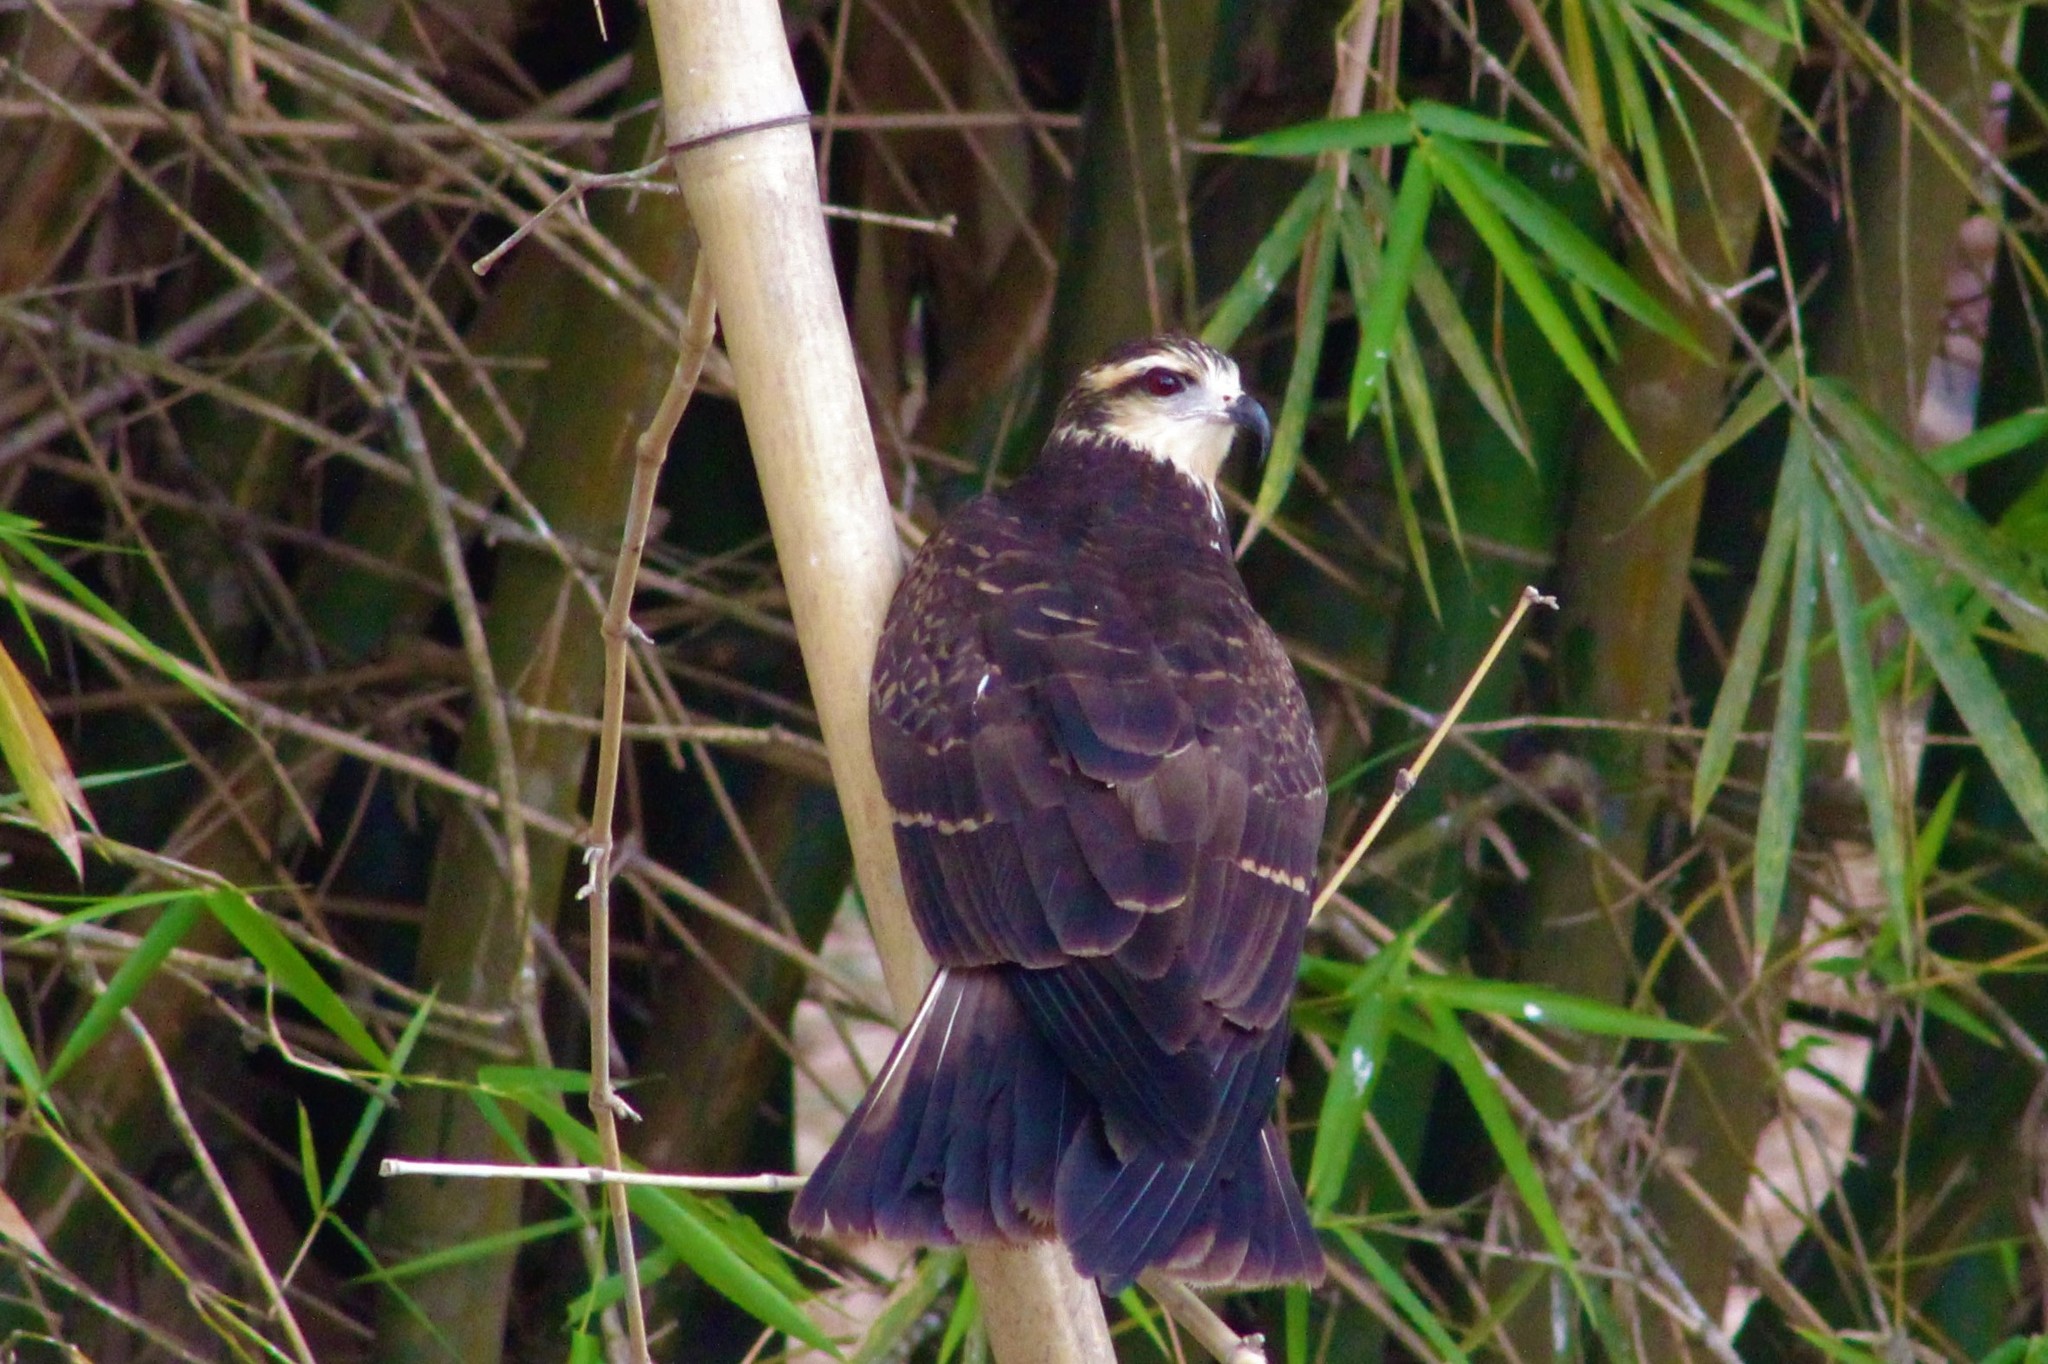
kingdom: Animalia
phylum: Chordata
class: Aves
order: Accipitriformes
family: Accipitridae
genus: Rostrhamus
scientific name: Rostrhamus sociabilis
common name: Snail kite
